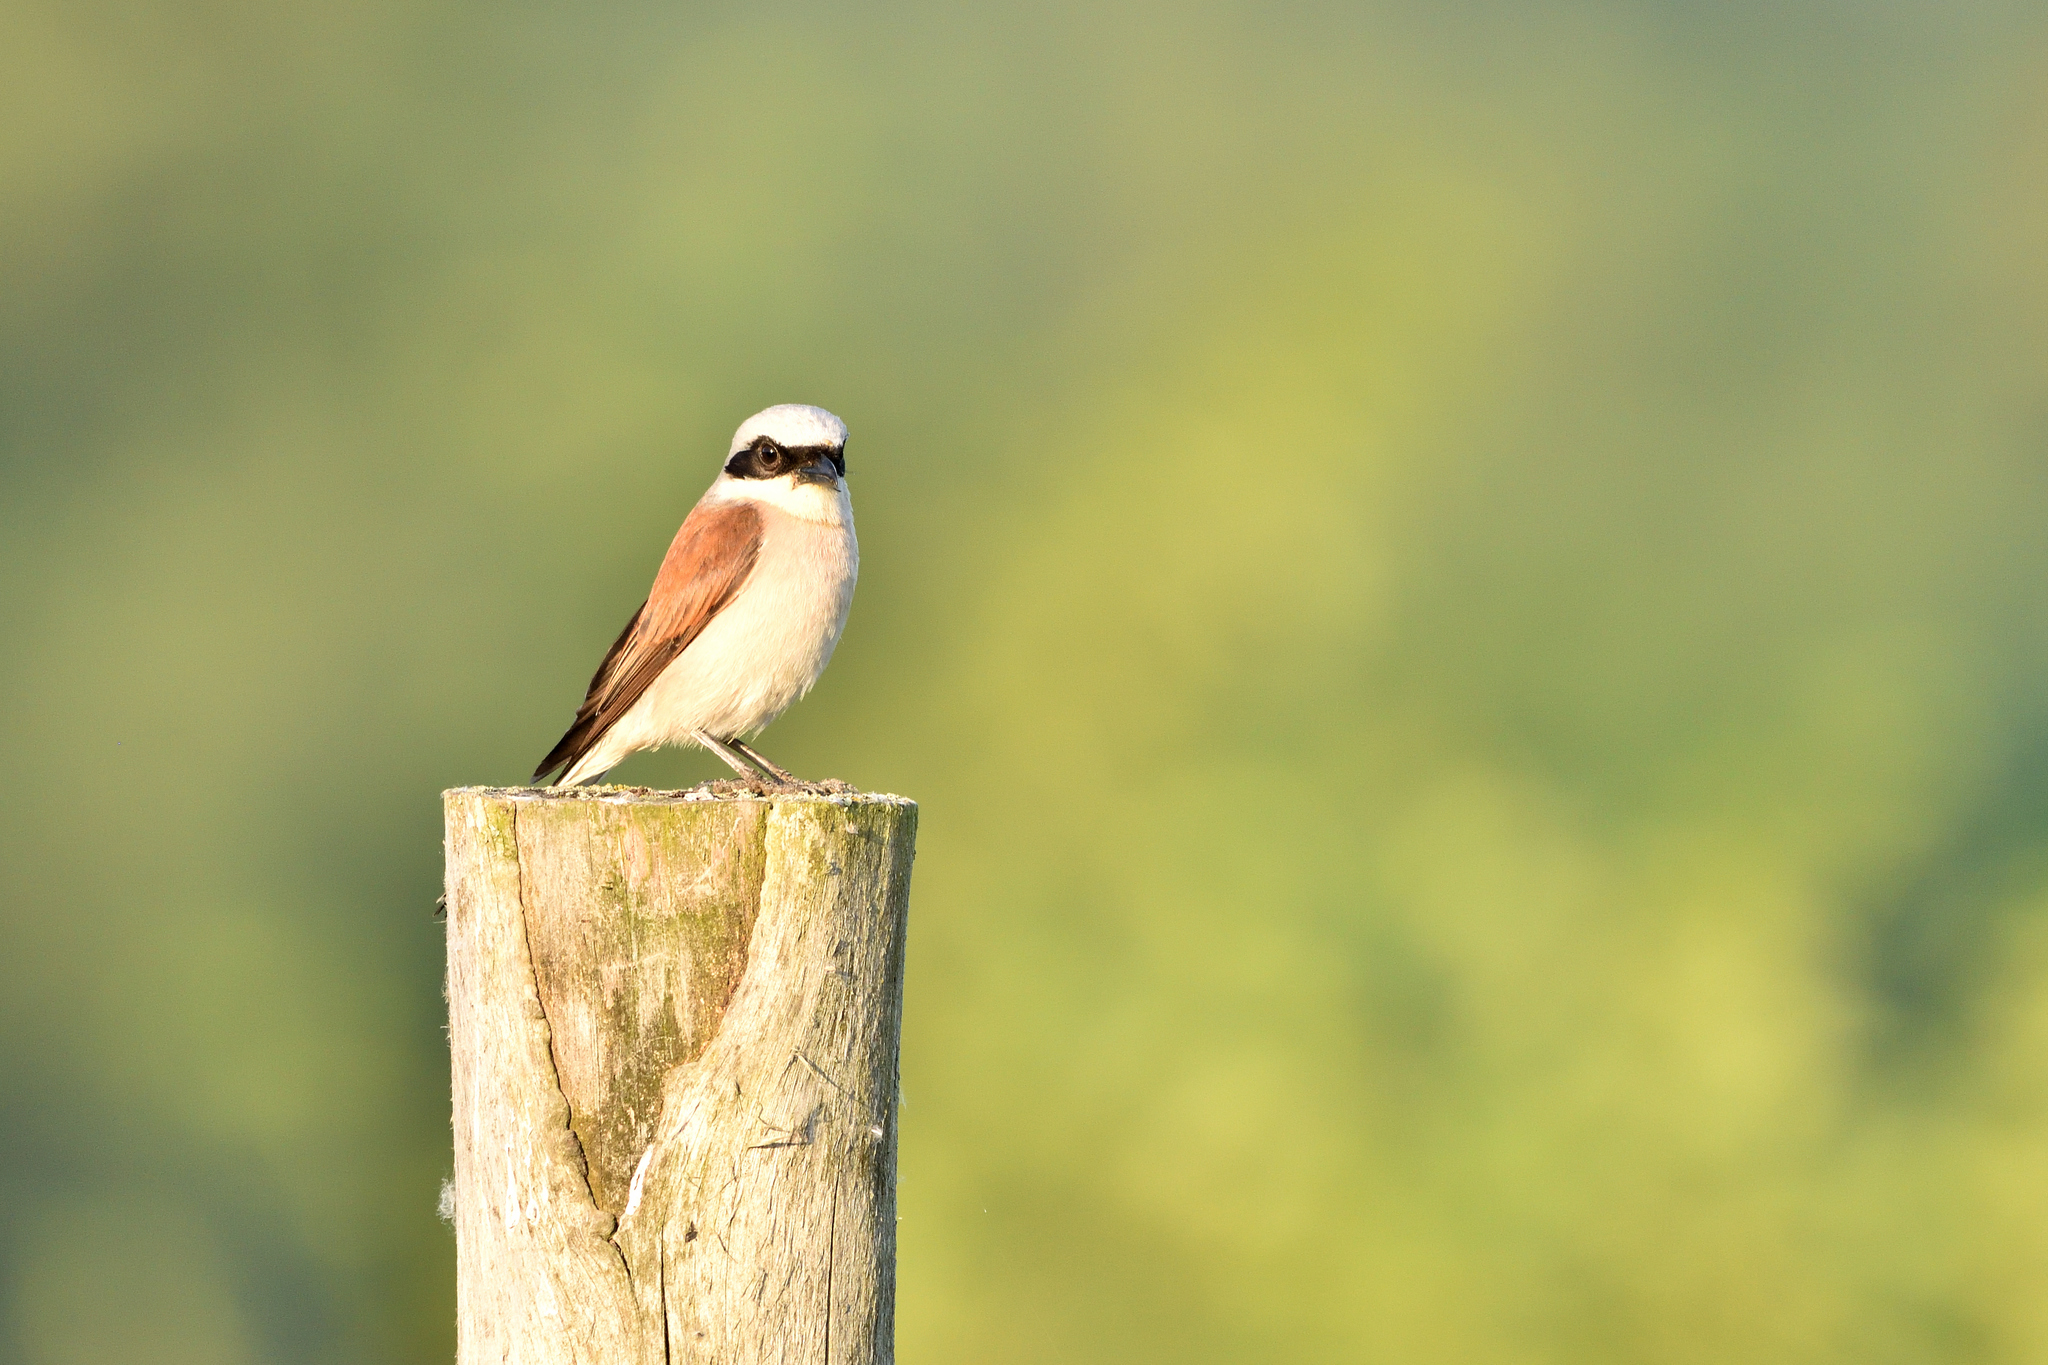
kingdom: Animalia
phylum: Chordata
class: Aves
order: Passeriformes
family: Laniidae
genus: Lanius
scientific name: Lanius collurio
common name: Red-backed shrike
